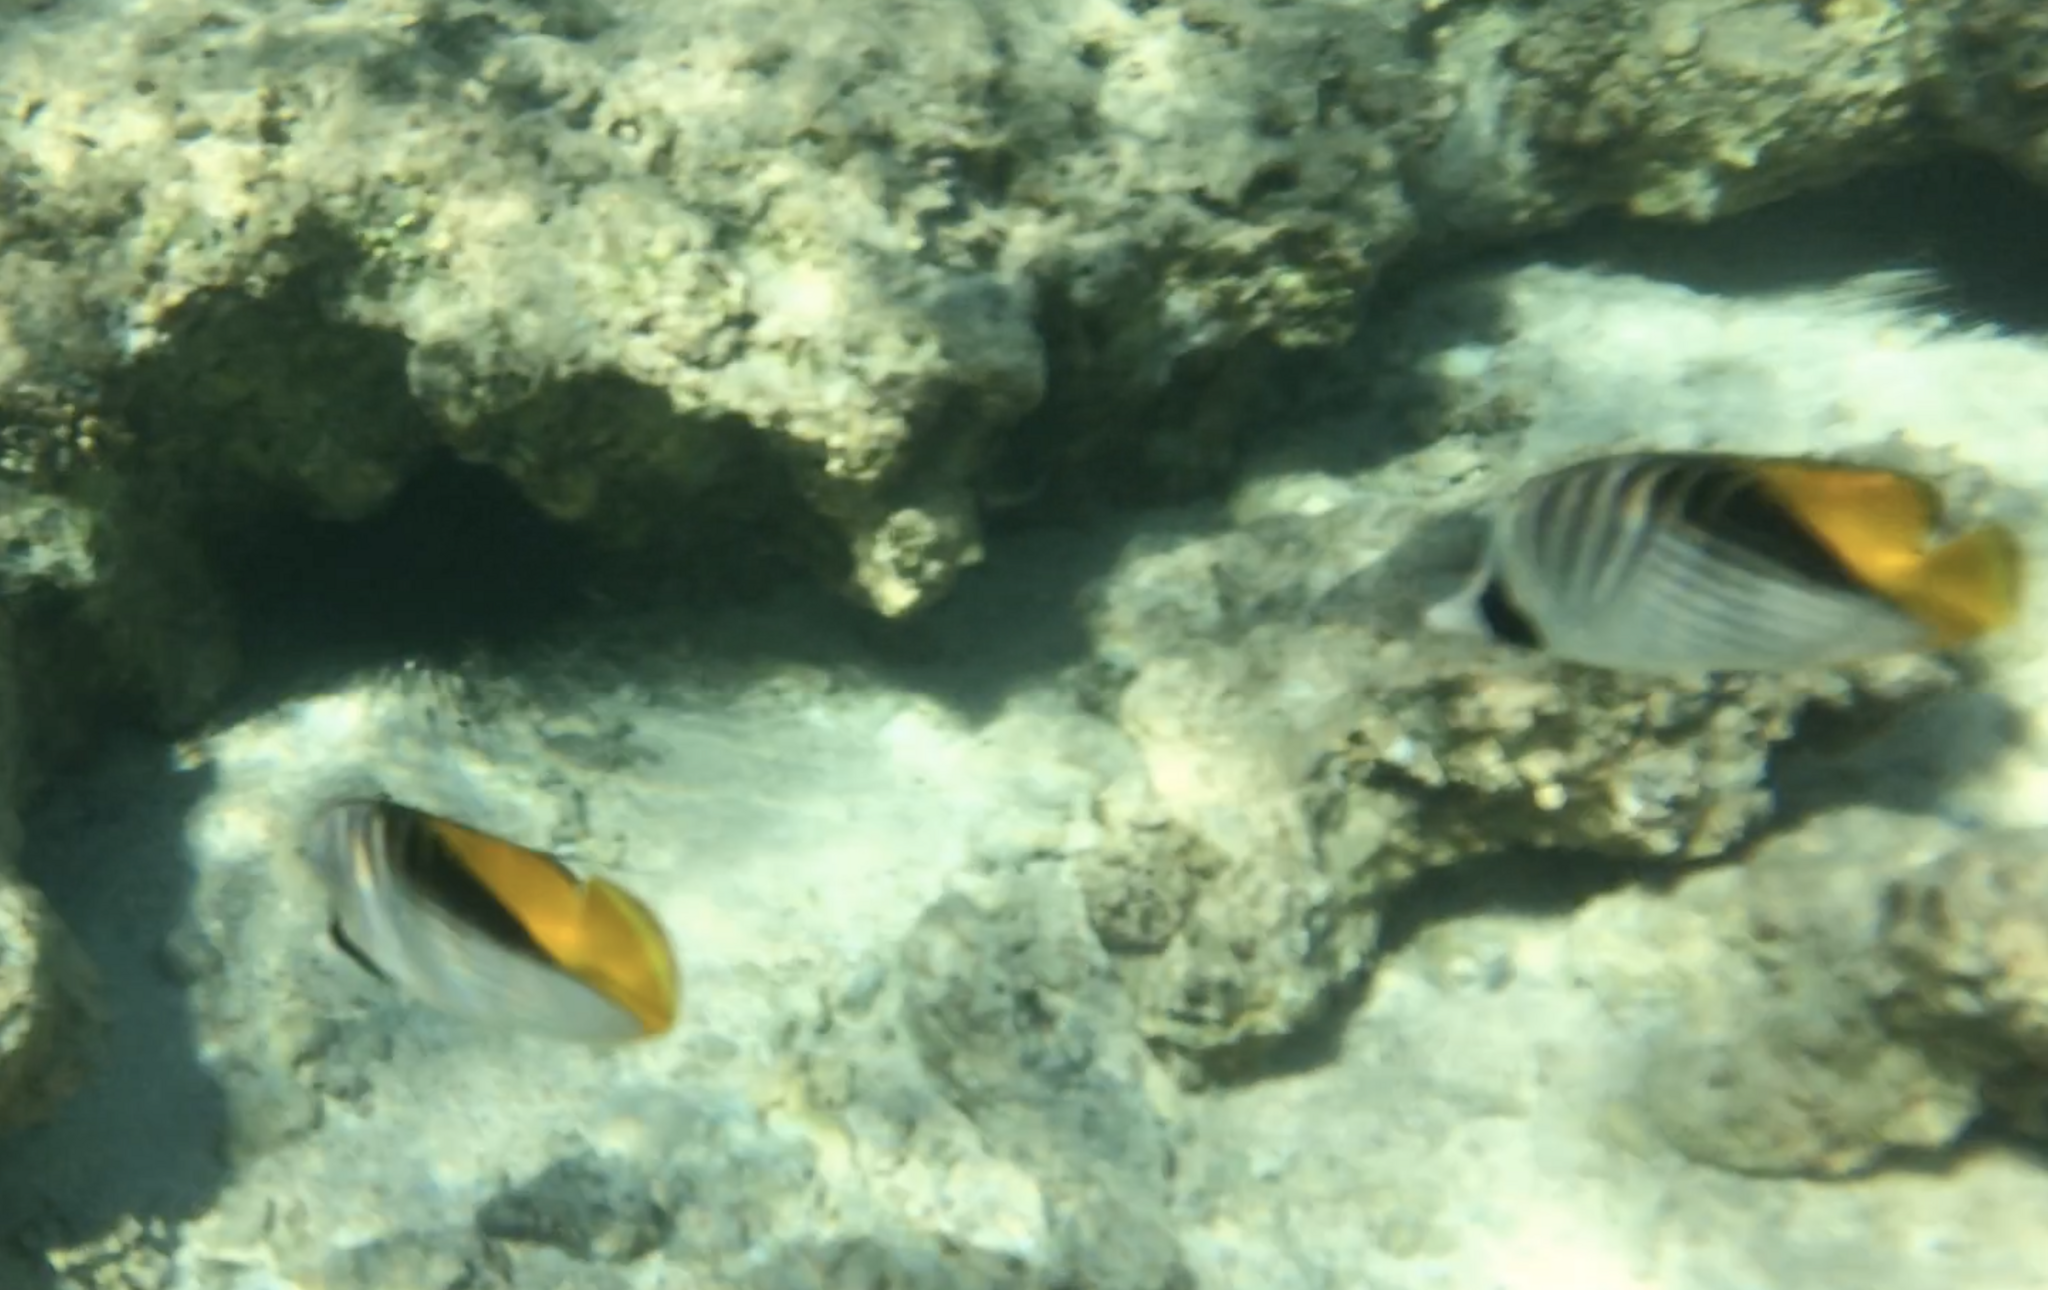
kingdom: Animalia
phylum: Chordata
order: Perciformes
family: Chaetodontidae
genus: Chaetodon
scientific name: Chaetodon auriga
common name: Threadfin butterflyfish
